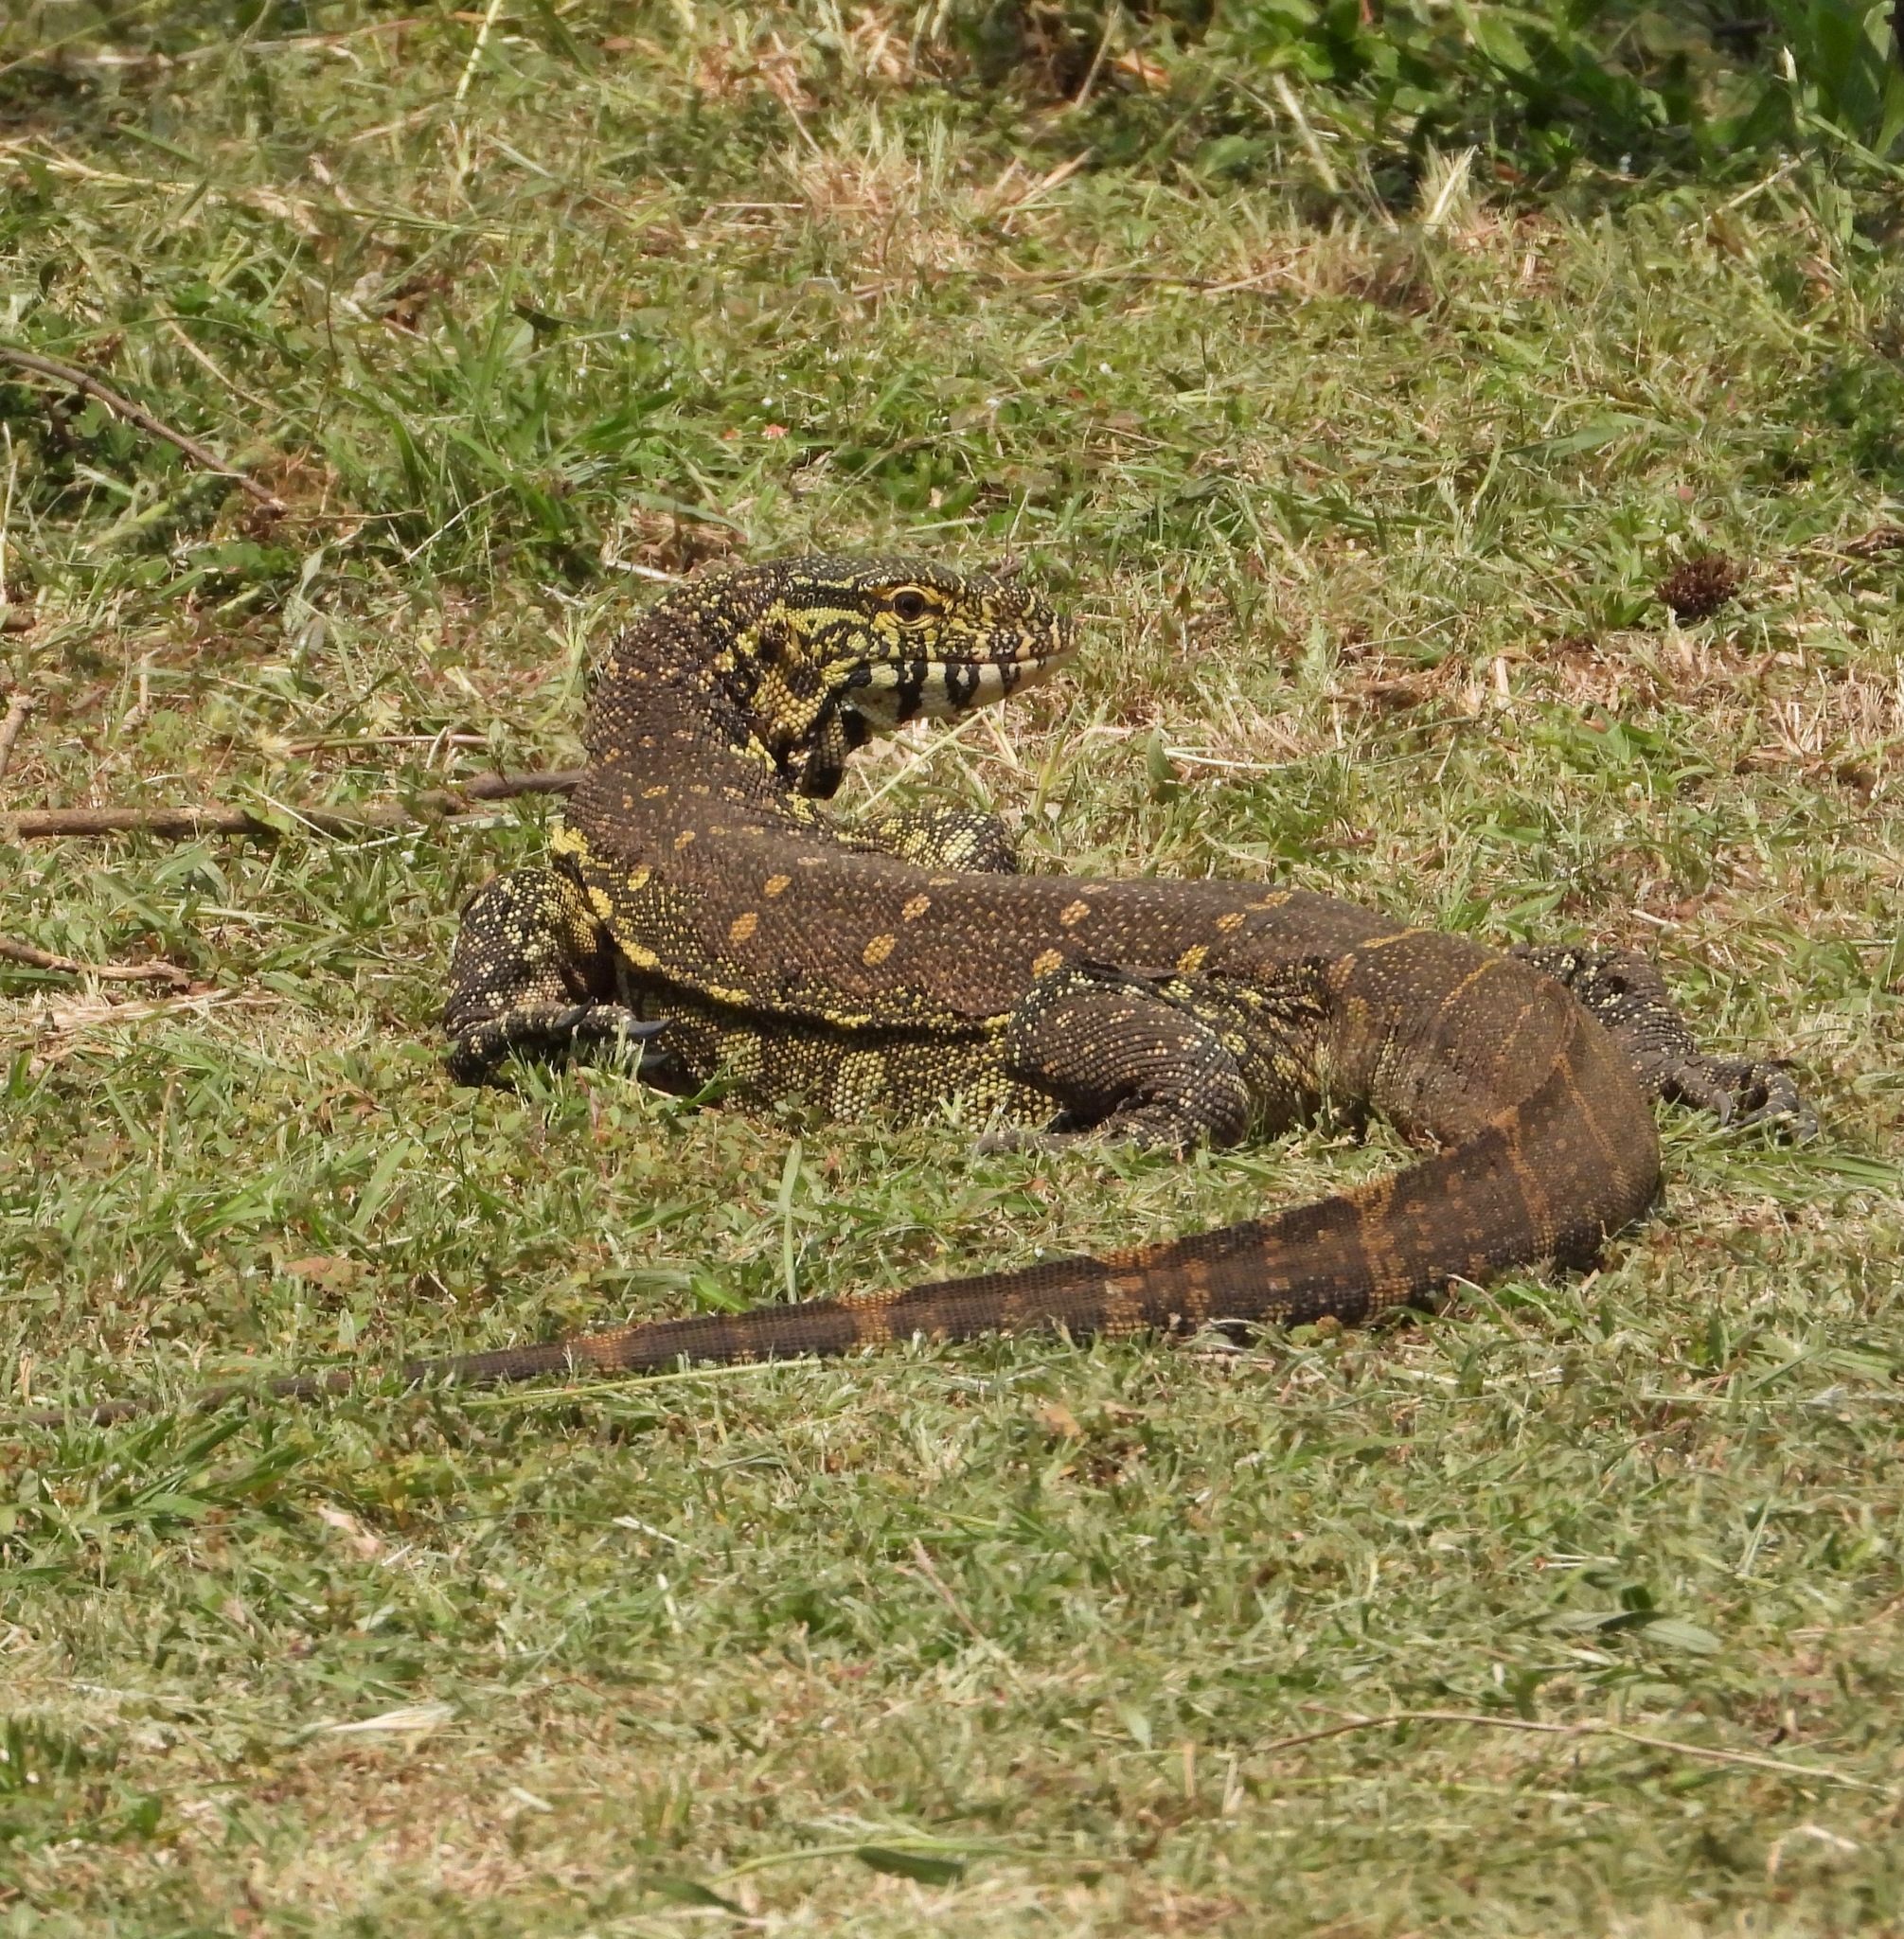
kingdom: Animalia
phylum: Chordata
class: Squamata
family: Varanidae
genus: Varanus
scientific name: Varanus niloticus
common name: Nile monitor
